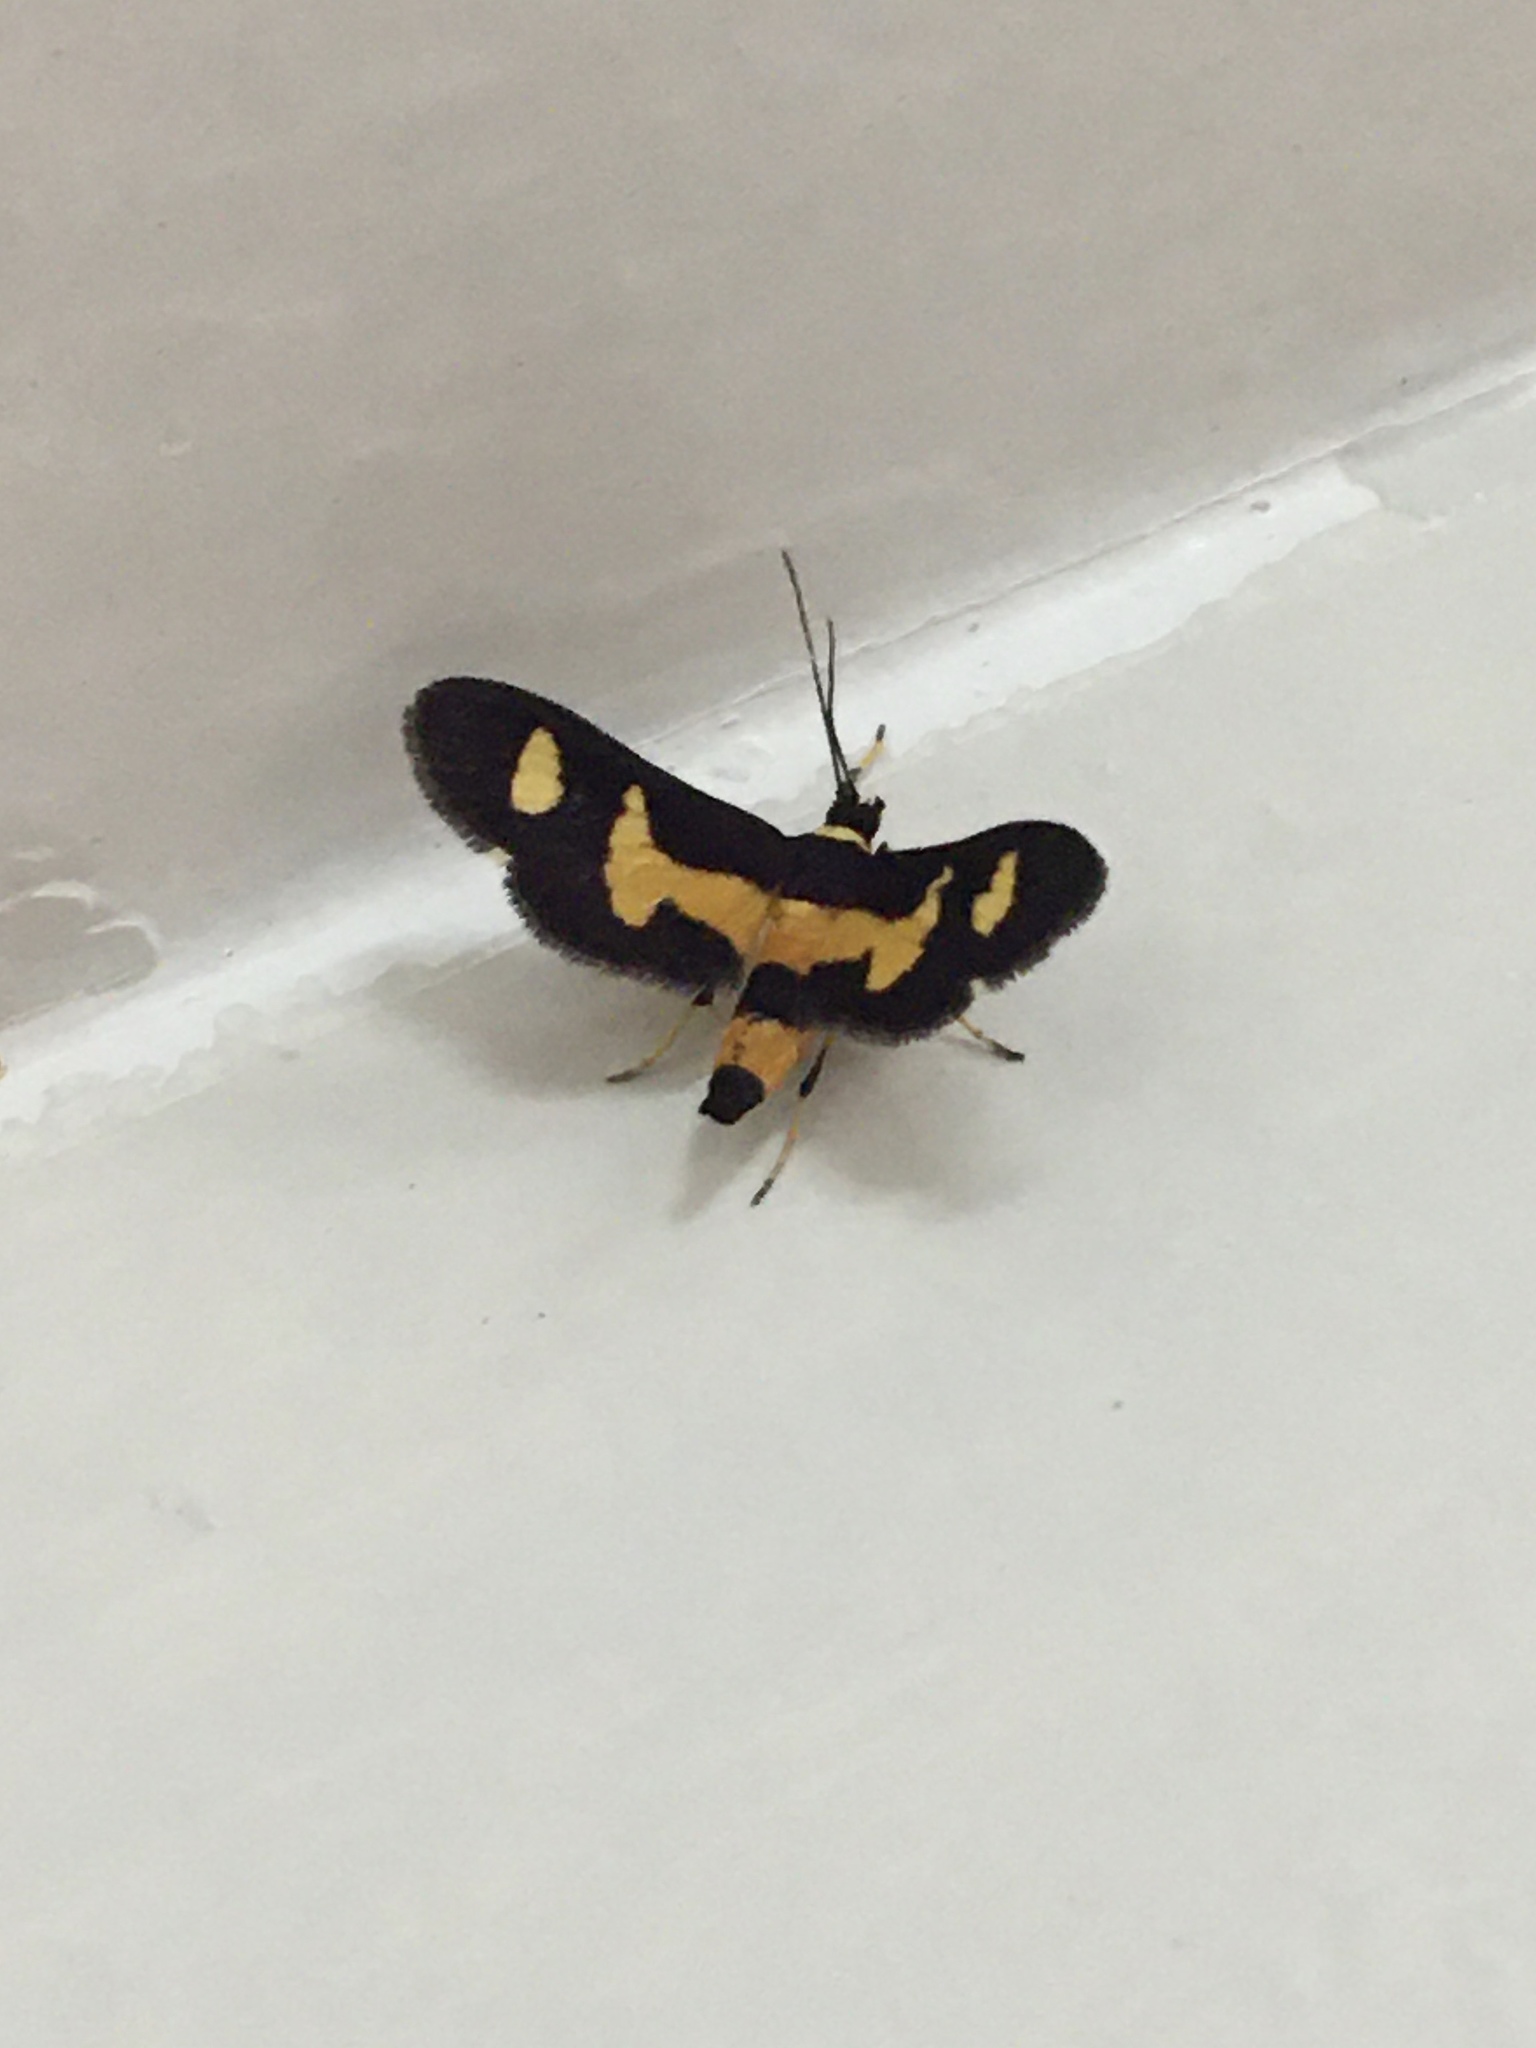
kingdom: Animalia
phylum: Arthropoda
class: Insecta
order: Lepidoptera
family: Crambidae
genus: Syngamia
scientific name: Syngamia pepitalis
